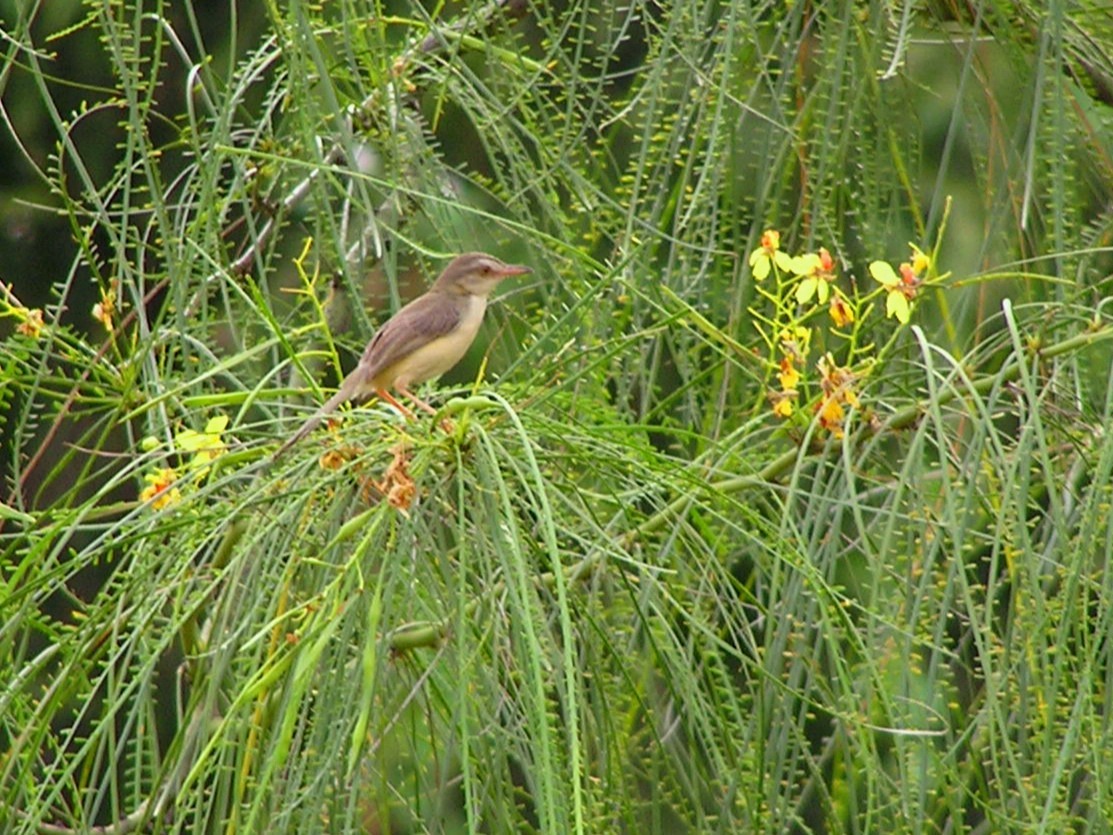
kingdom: Animalia
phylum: Chordata
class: Aves
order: Passeriformes
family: Cisticolidae
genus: Prinia
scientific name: Prinia inornata
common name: Plain prinia
